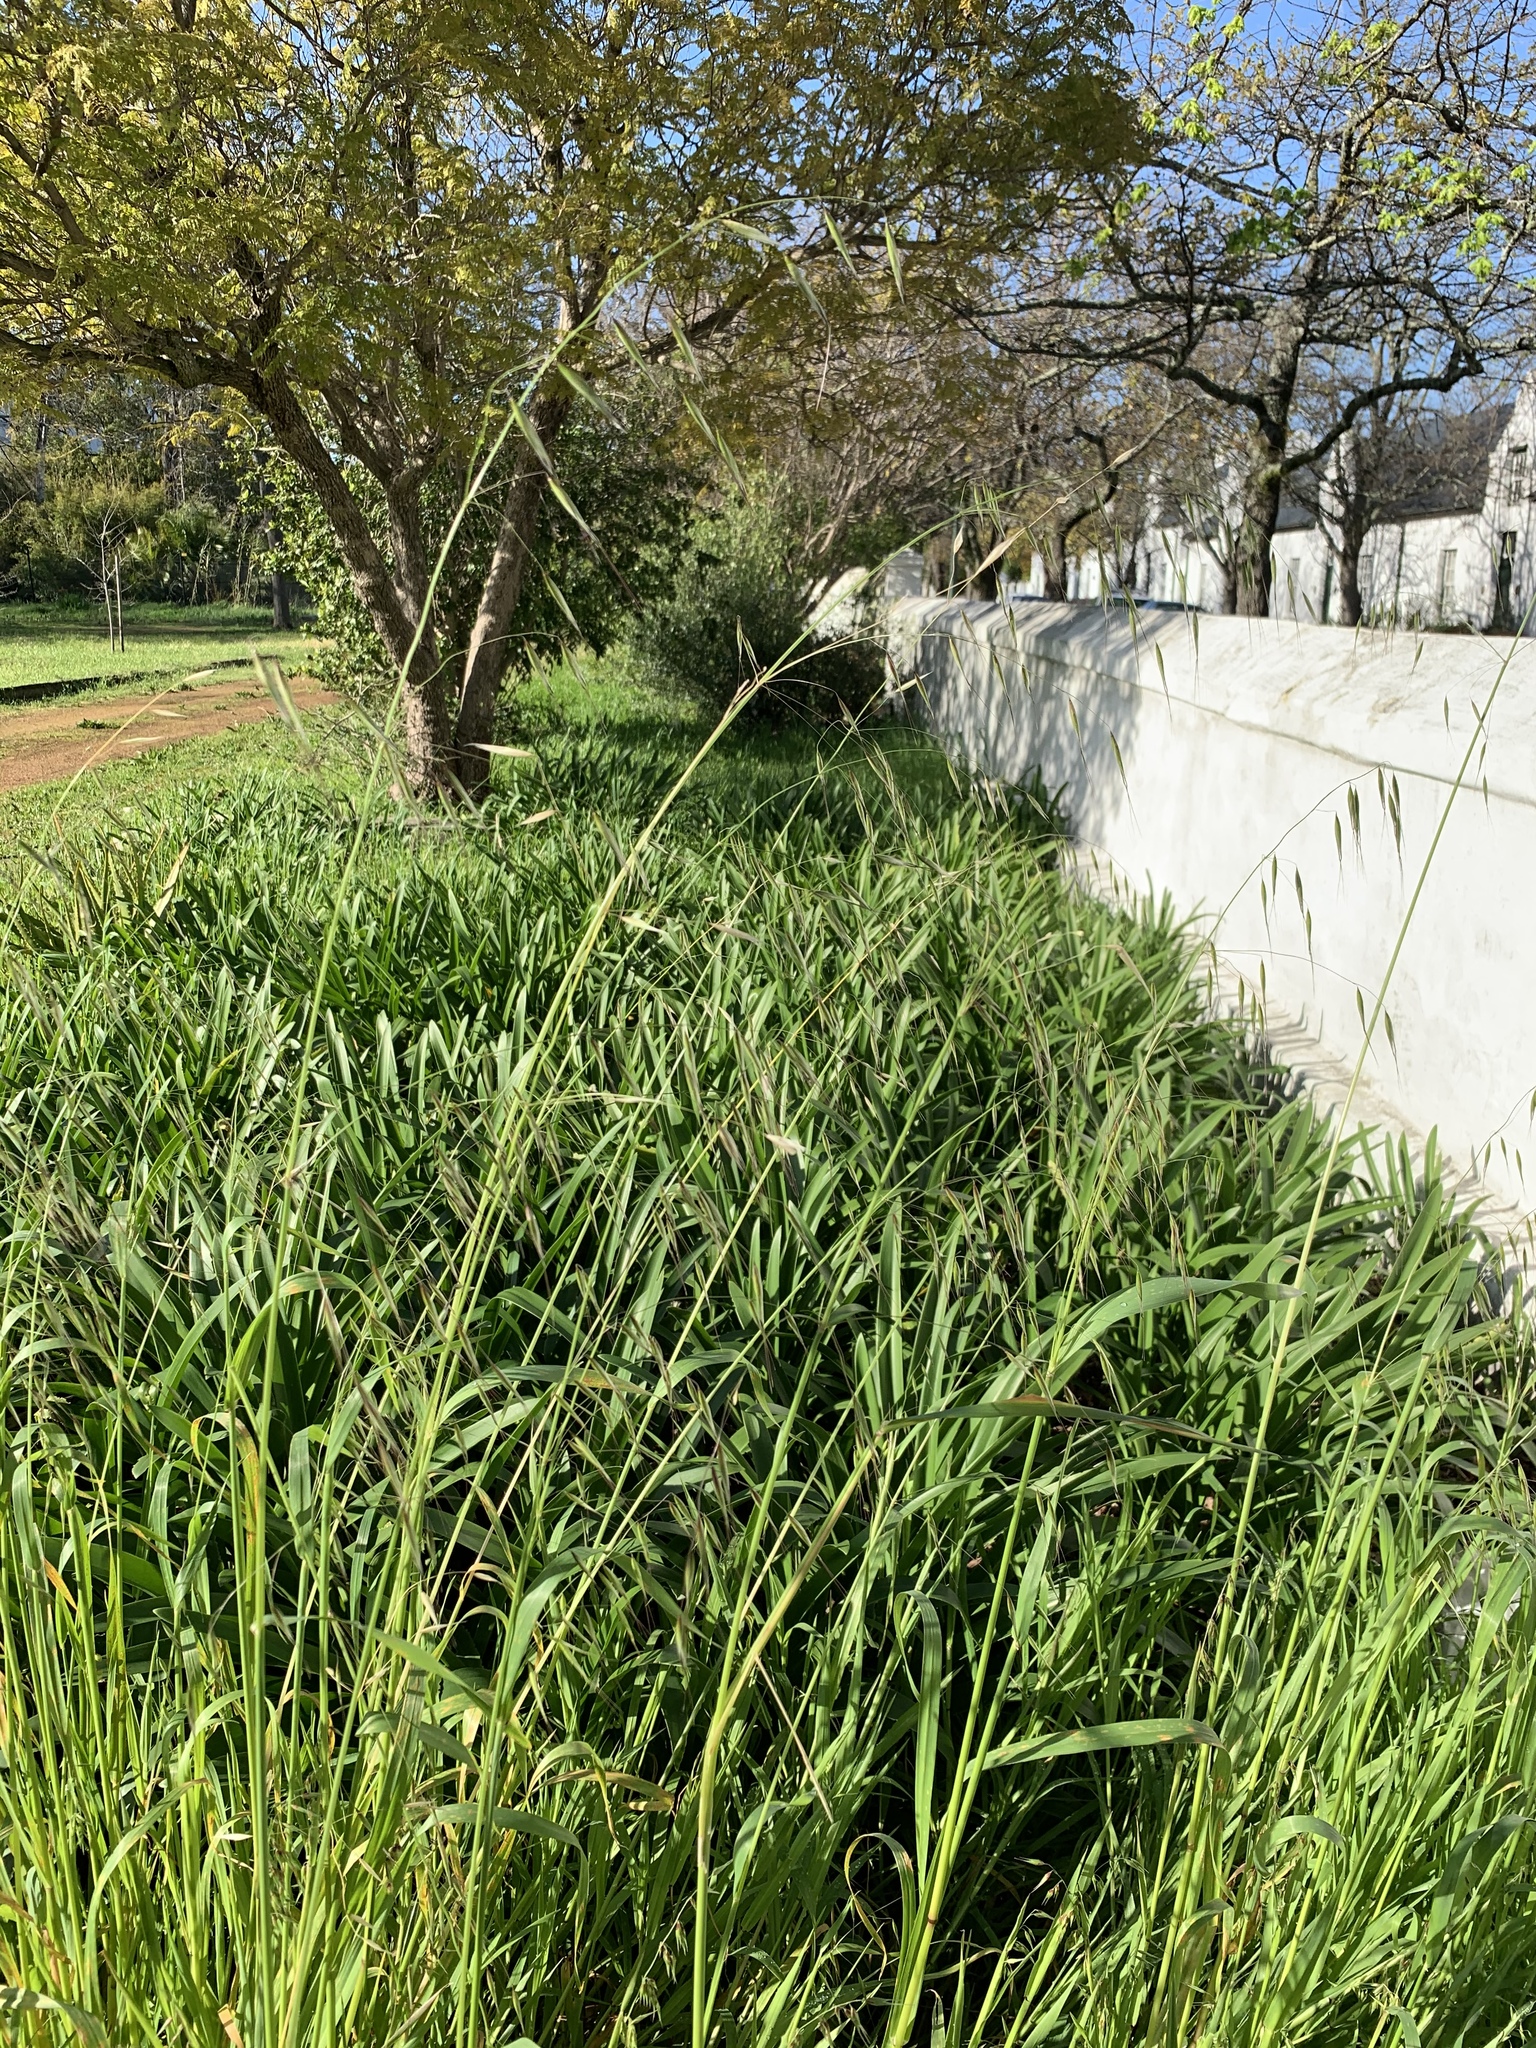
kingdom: Plantae
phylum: Tracheophyta
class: Liliopsida
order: Poales
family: Poaceae
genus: Avena
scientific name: Avena fatua
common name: Wild oat
